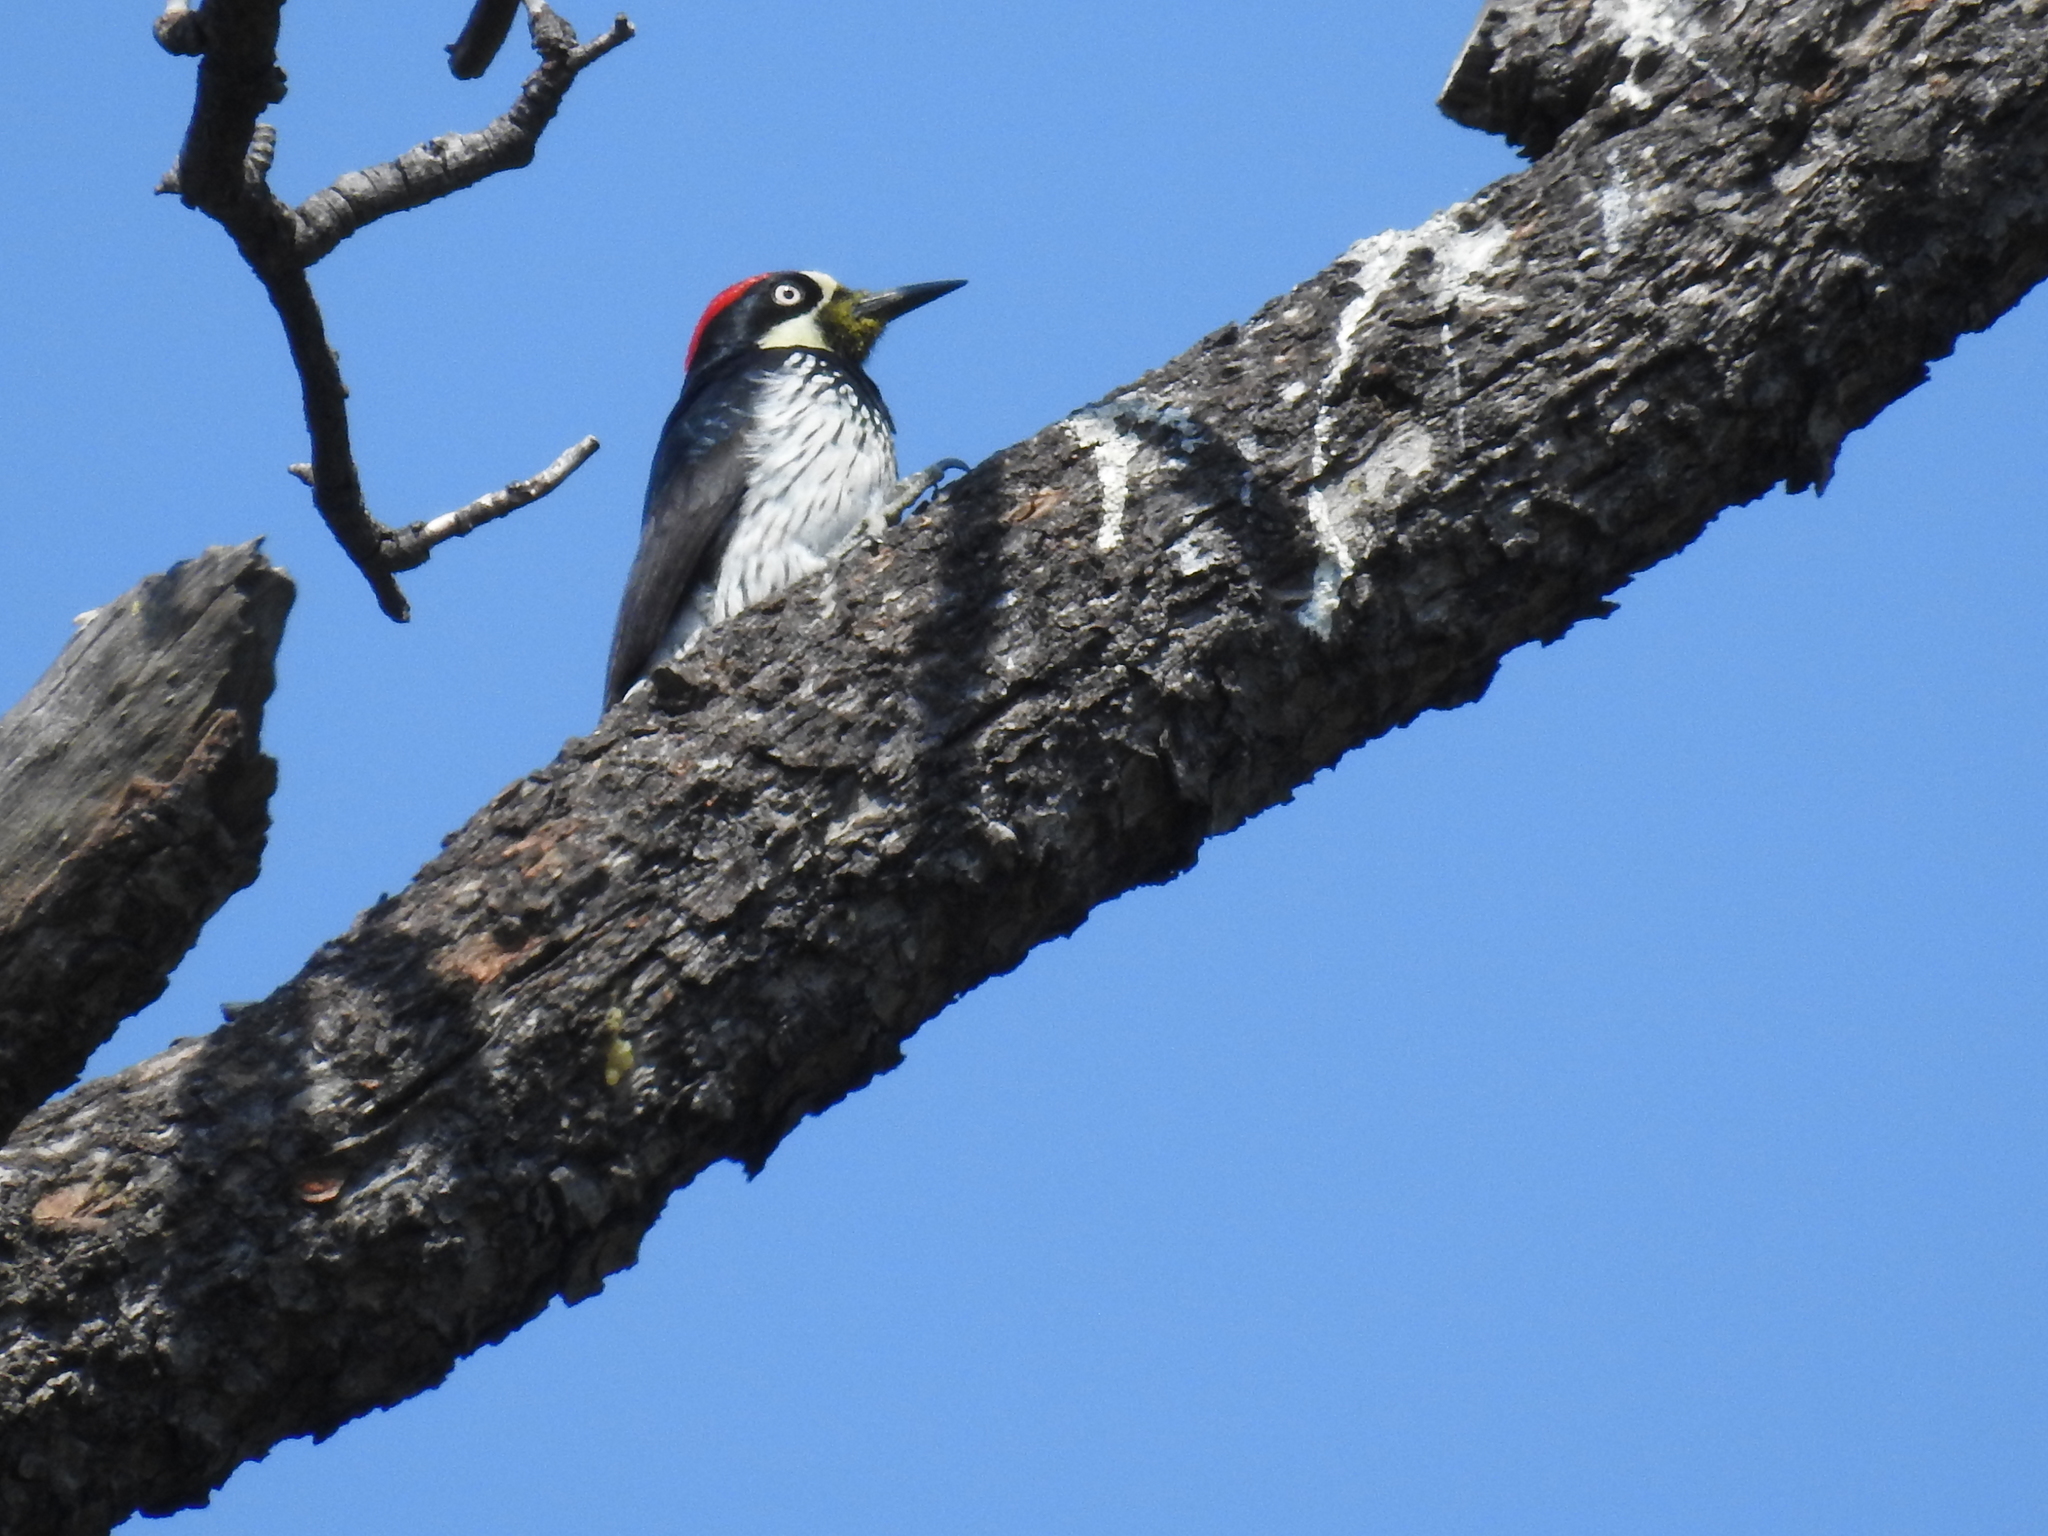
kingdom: Animalia
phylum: Chordata
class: Aves
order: Piciformes
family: Picidae
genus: Melanerpes
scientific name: Melanerpes formicivorus
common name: Acorn woodpecker
